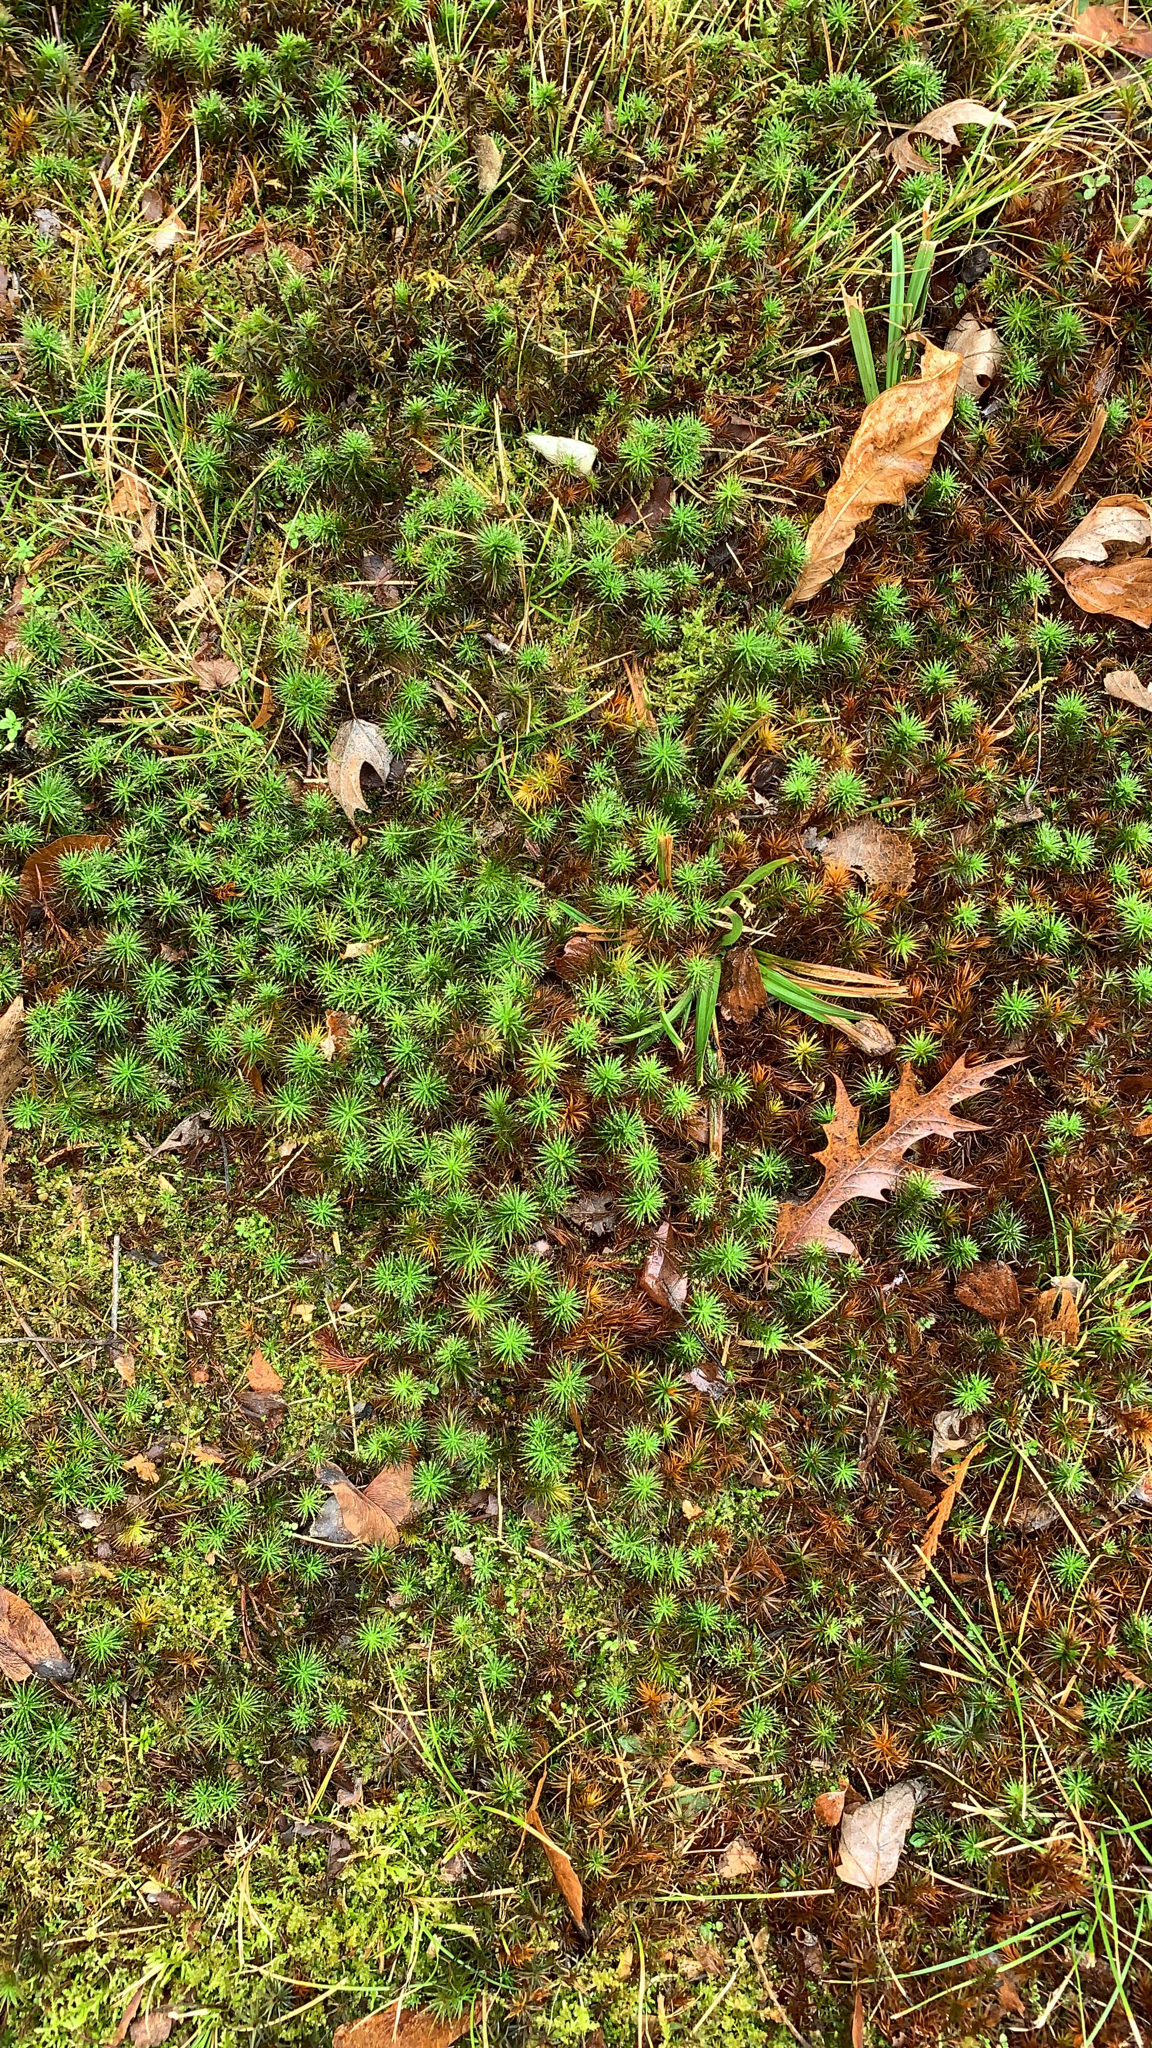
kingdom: Plantae
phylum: Bryophyta
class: Polytrichopsida
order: Polytrichales
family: Polytrichaceae
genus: Polytrichum
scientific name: Polytrichum commune
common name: Common haircap
